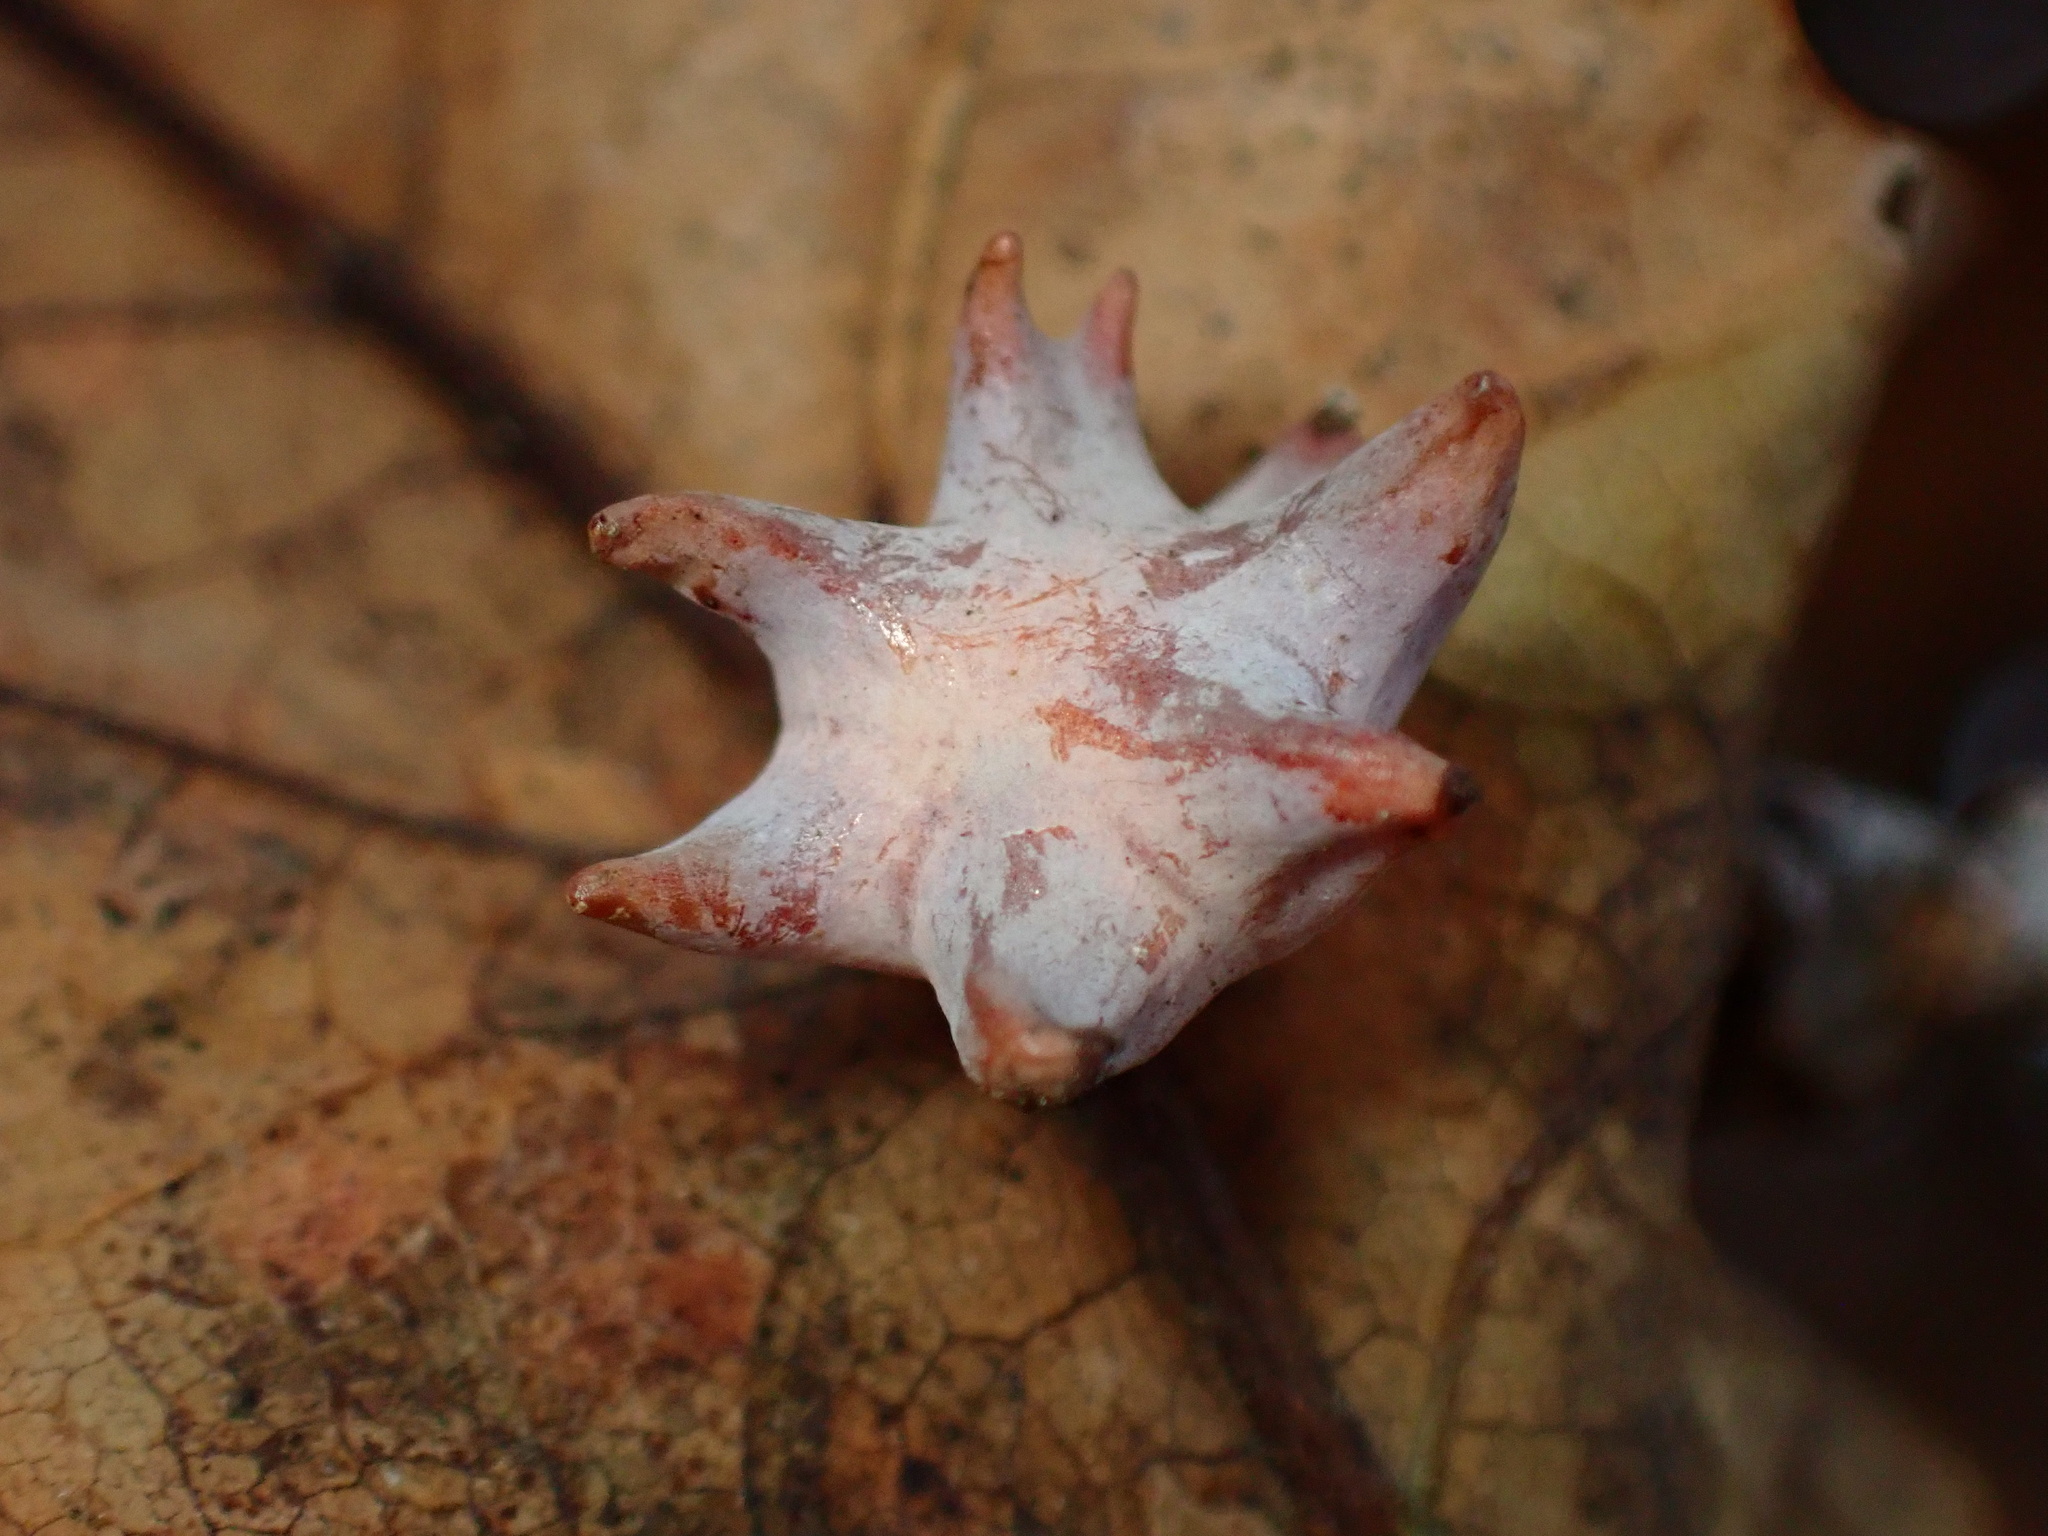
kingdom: Animalia
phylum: Arthropoda
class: Insecta
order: Hymenoptera
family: Cynipidae
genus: Cynips
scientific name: Cynips douglasi
